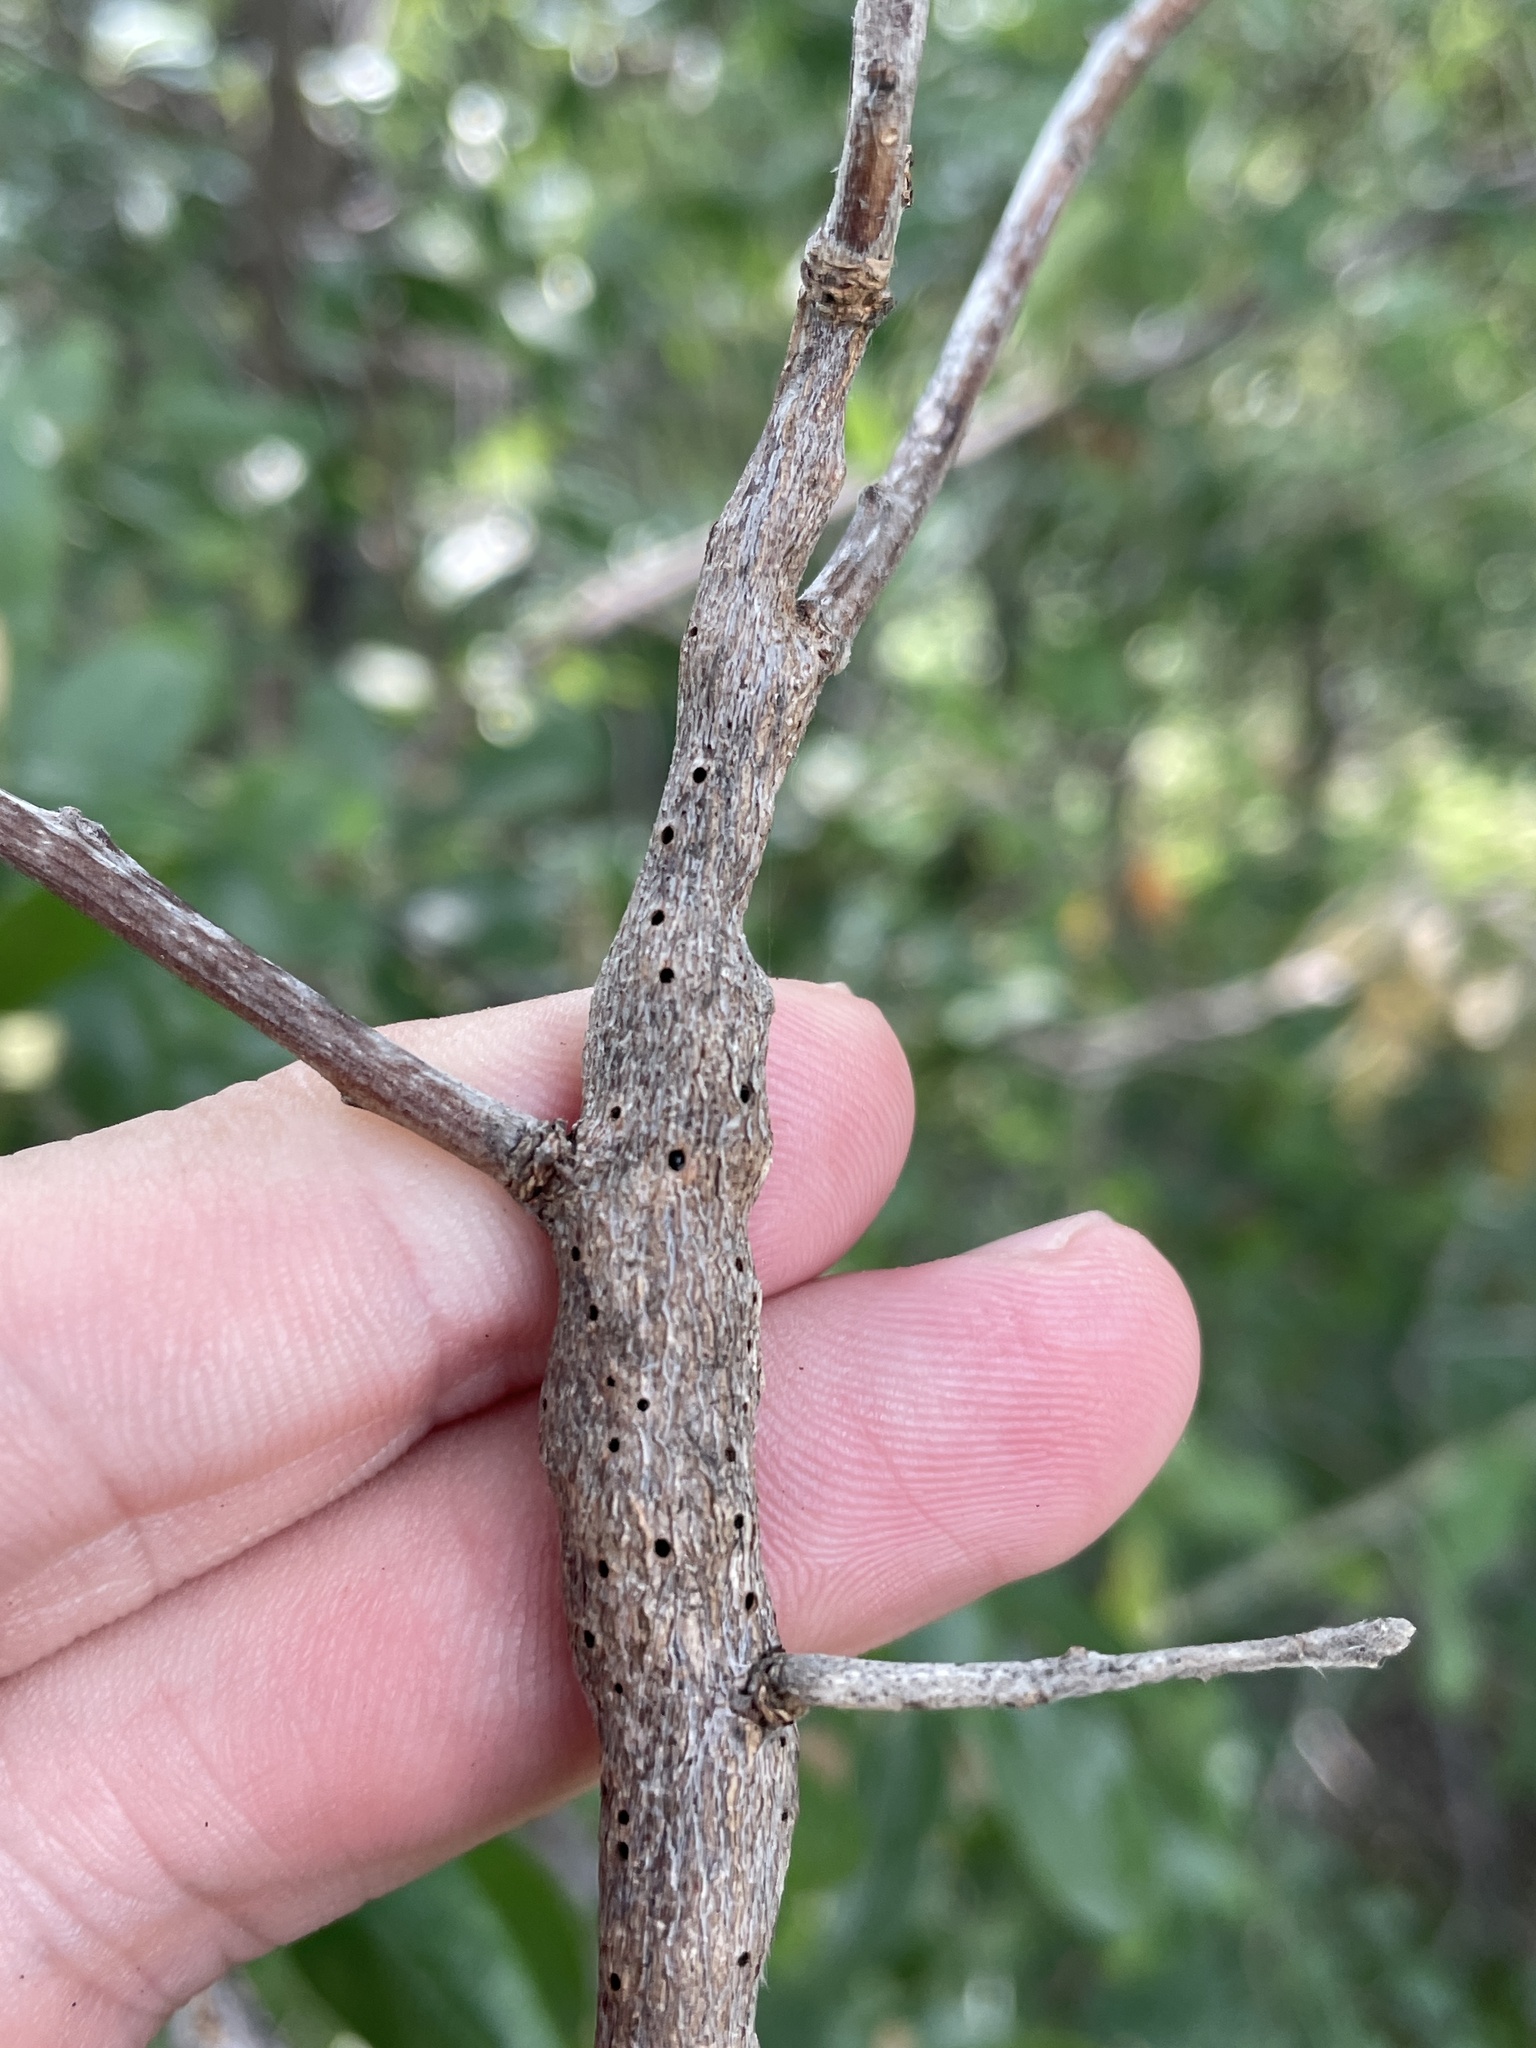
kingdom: Animalia
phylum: Arthropoda
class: Insecta
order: Diptera
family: Cecidomyiidae
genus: Bruggmanniella
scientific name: Bruggmanniella bumeliae
